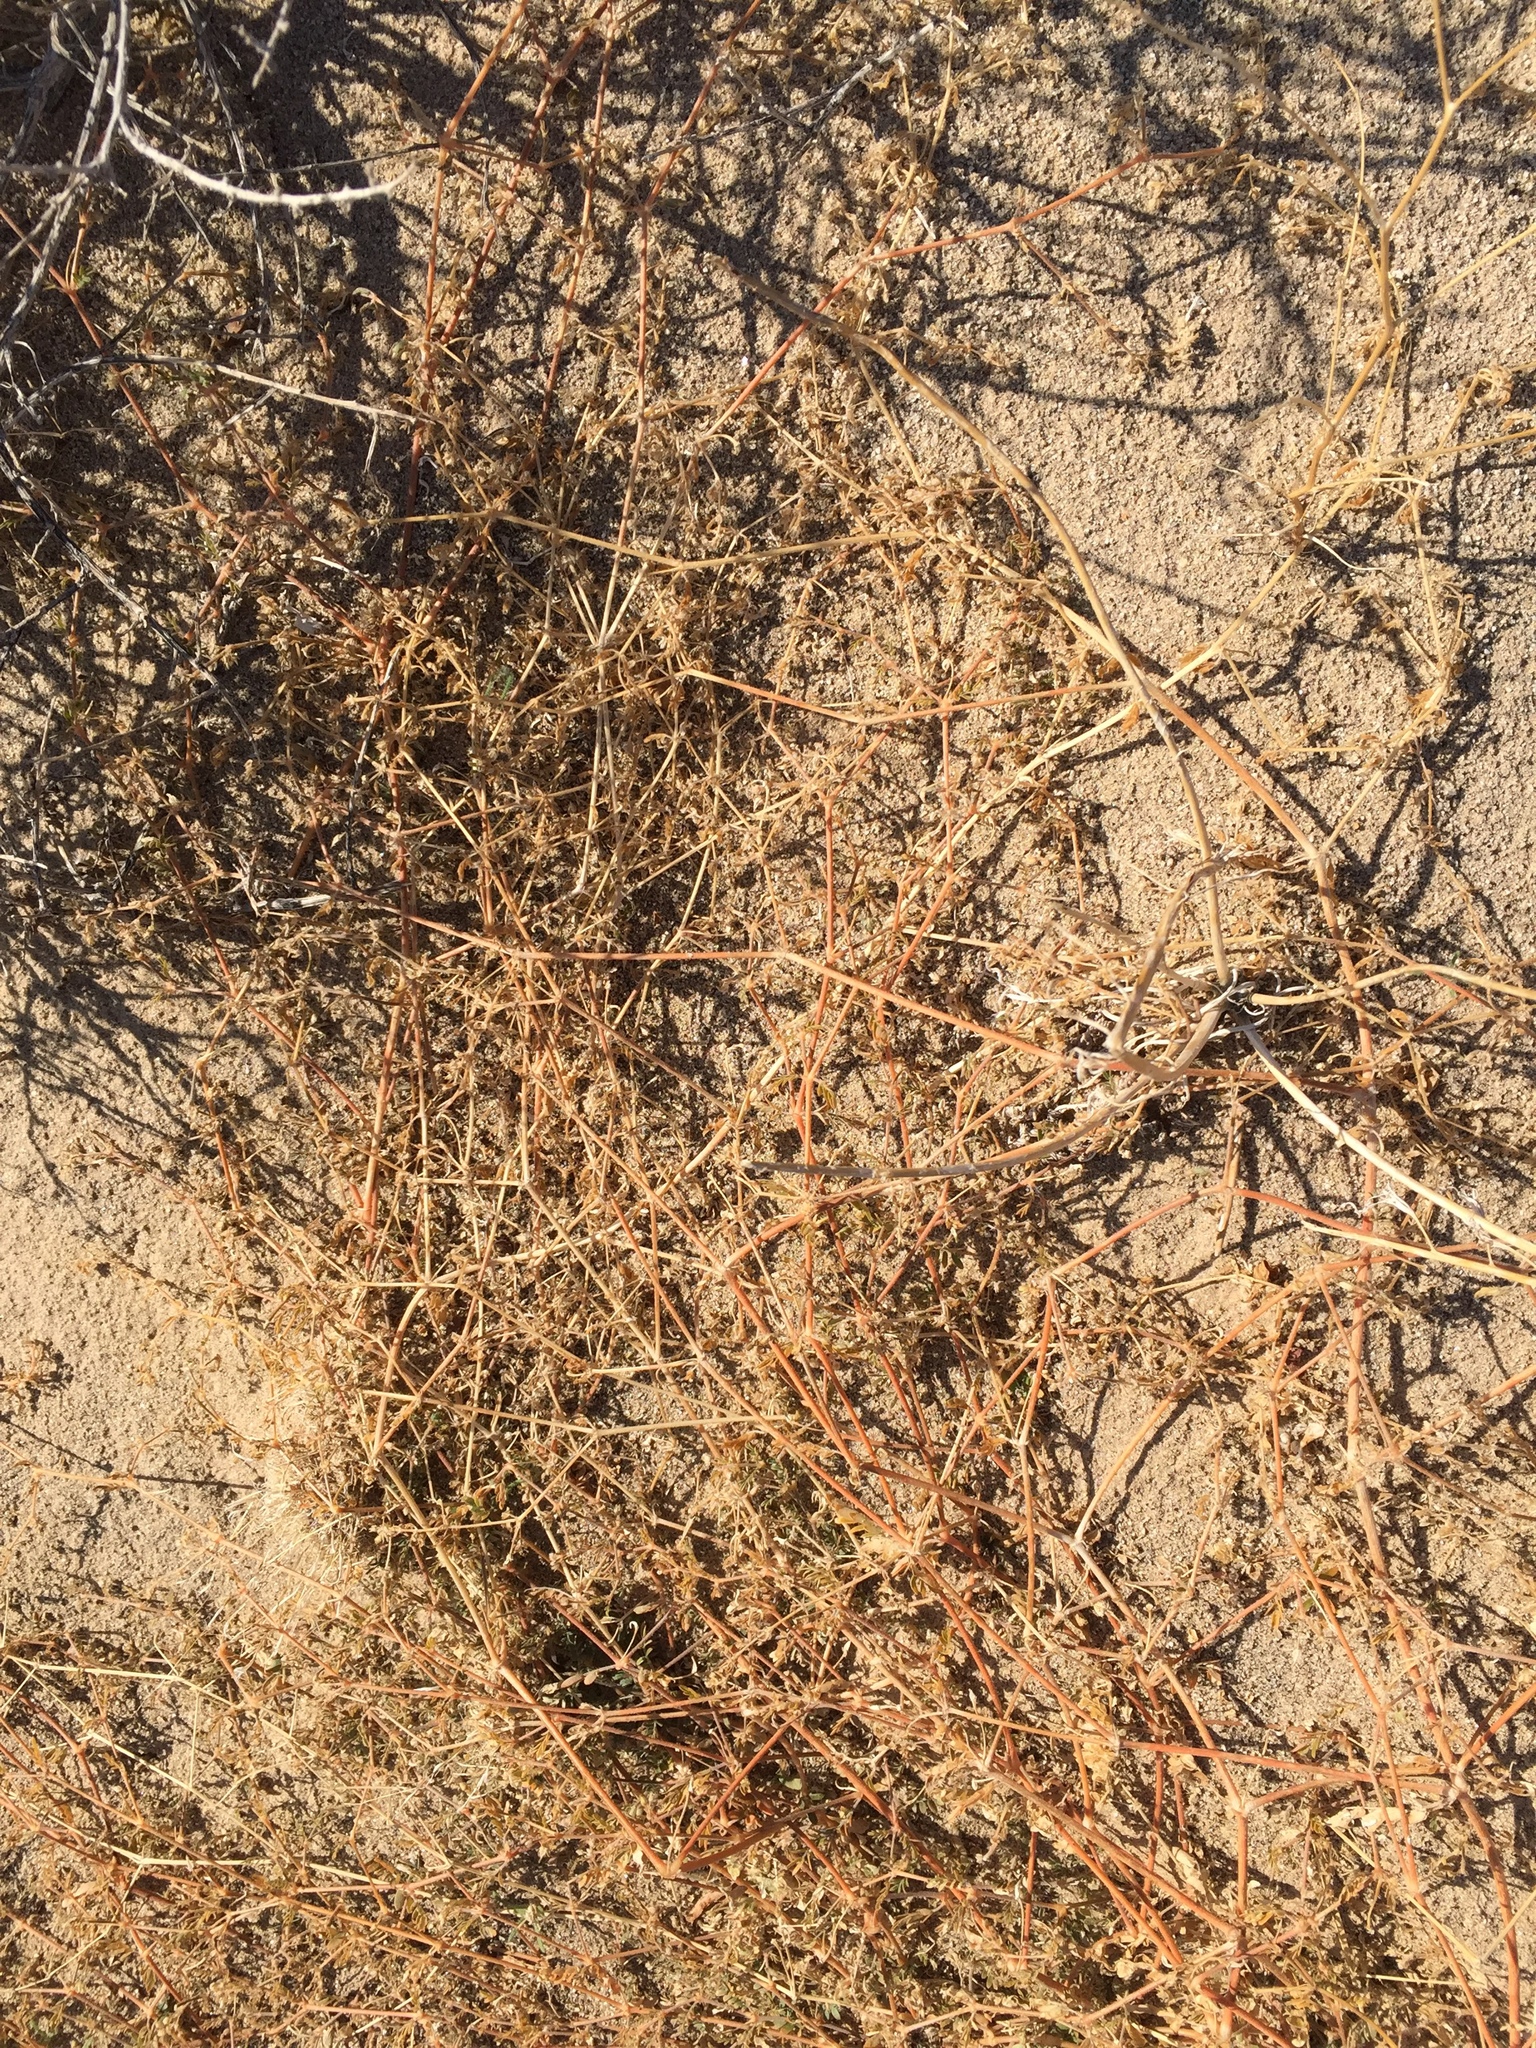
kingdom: Plantae
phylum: Tracheophyta
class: Magnoliopsida
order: Zygophyllales
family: Zygophyllaceae
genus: Kallstroemia
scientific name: Kallstroemia californica
